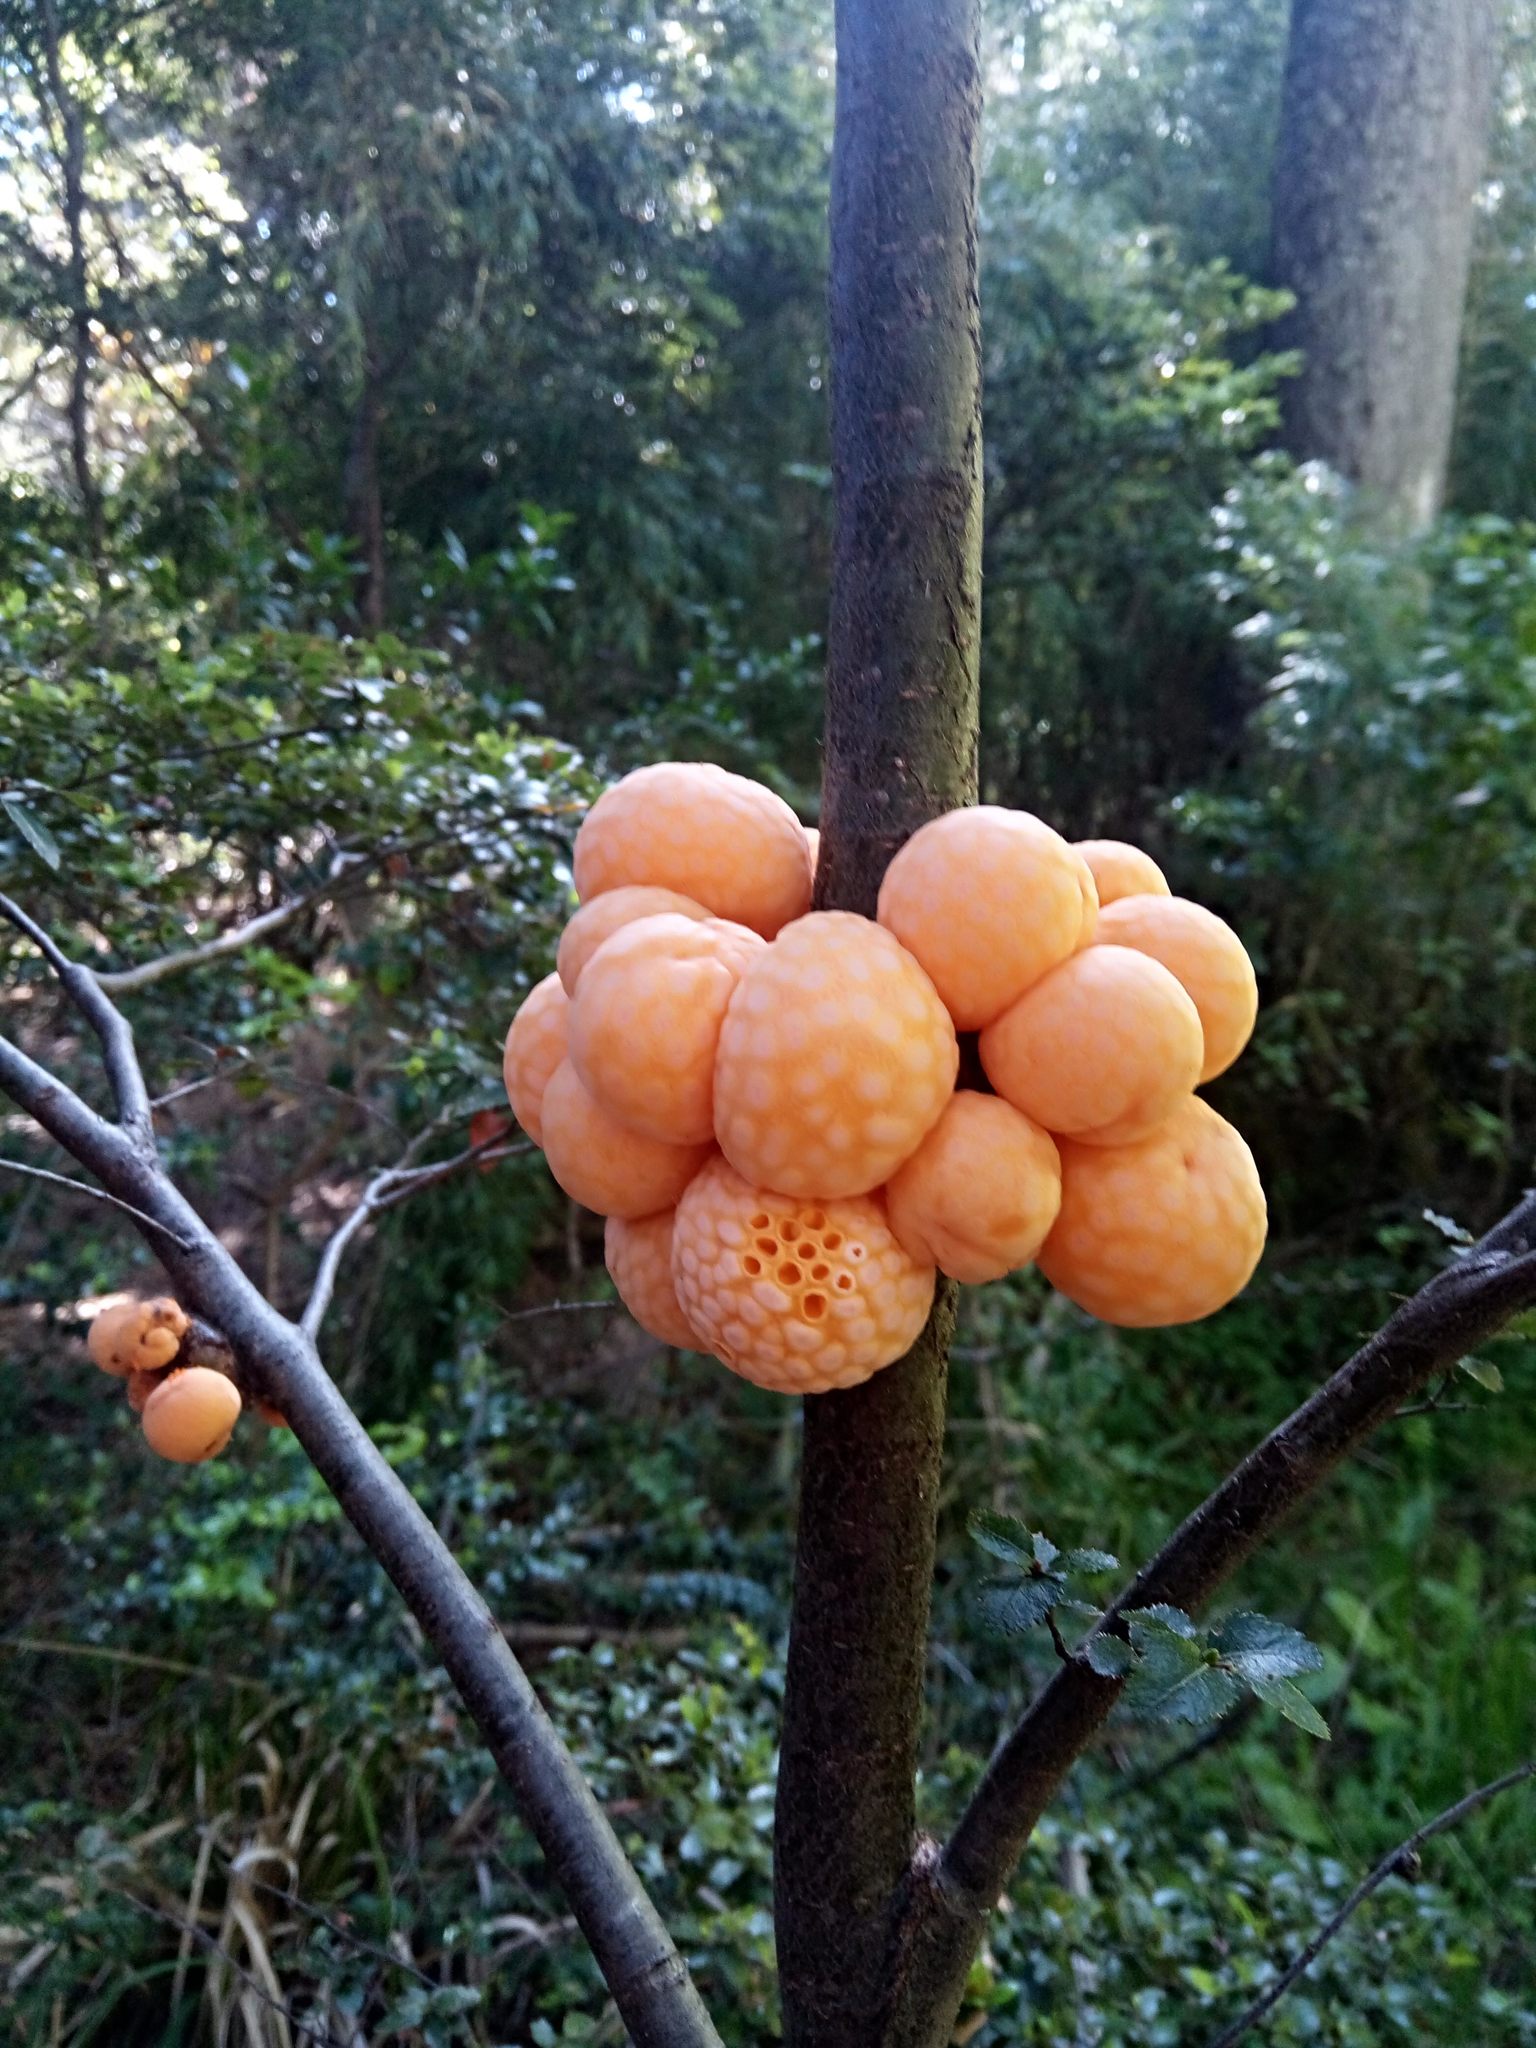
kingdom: Fungi
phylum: Ascomycota
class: Leotiomycetes
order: Cyttariales
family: Cyttariaceae
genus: Cyttaria
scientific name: Cyttaria hariotii
